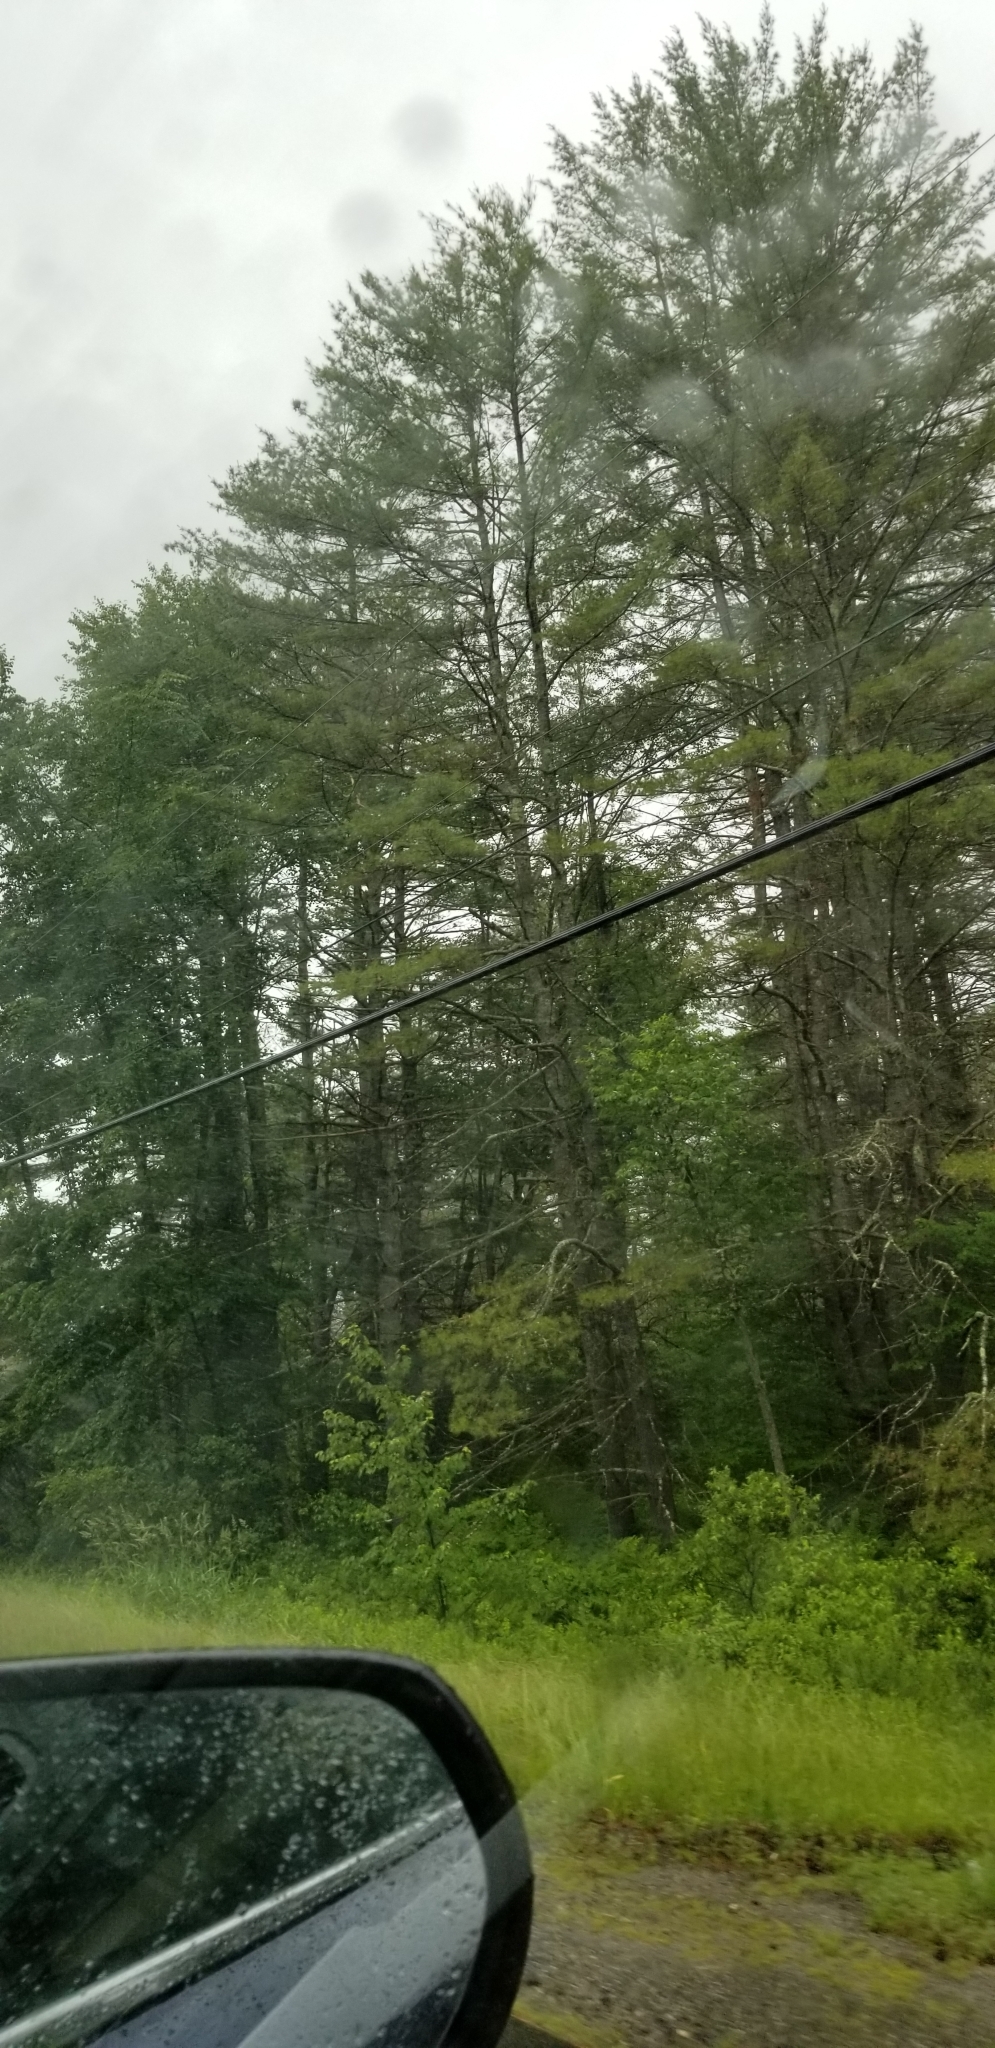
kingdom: Plantae
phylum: Tracheophyta
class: Pinopsida
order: Pinales
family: Pinaceae
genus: Pinus
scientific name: Pinus strobus
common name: Weymouth pine
